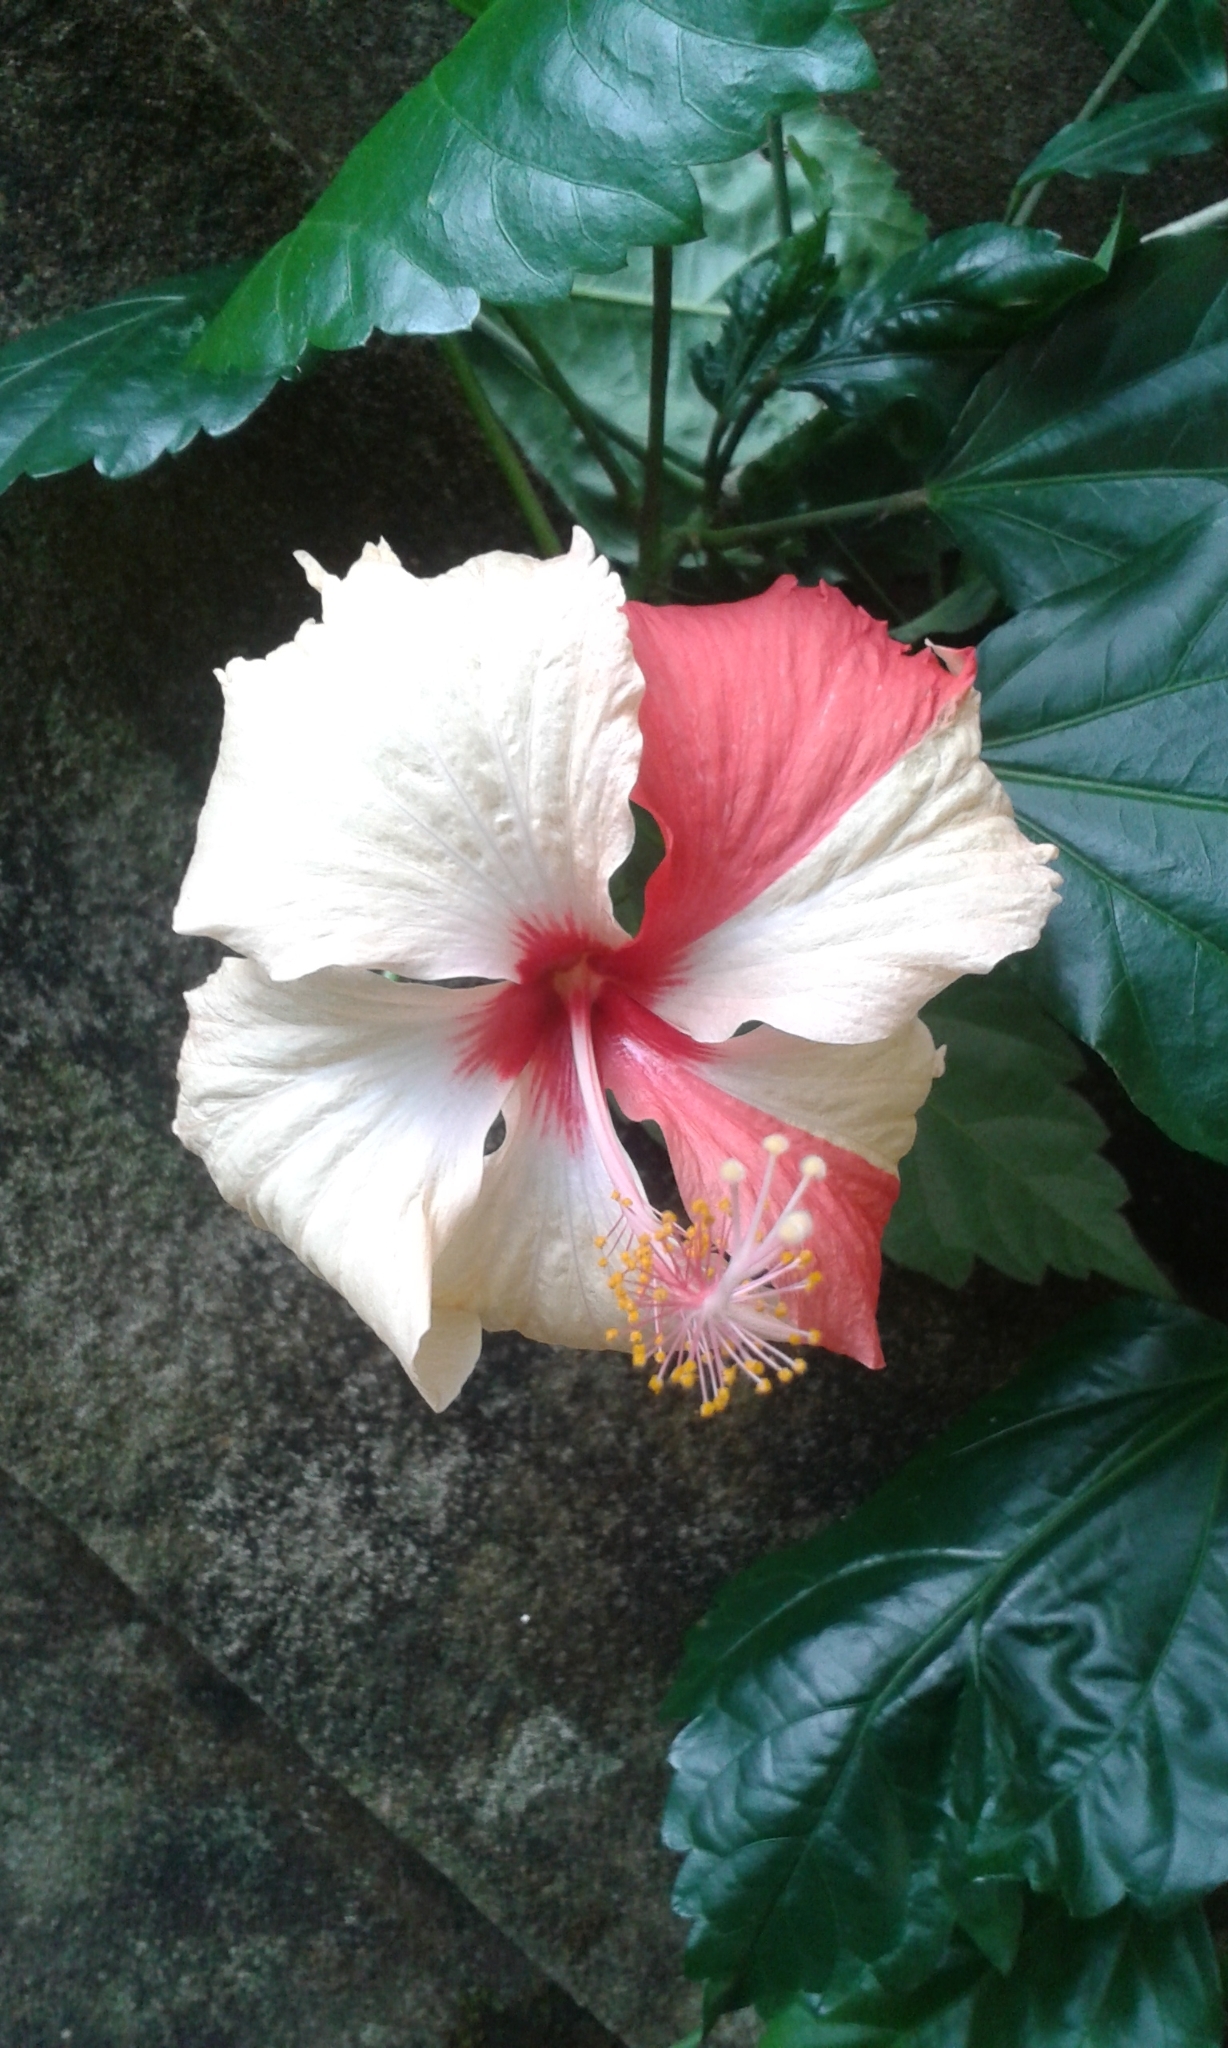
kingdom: Plantae
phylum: Tracheophyta
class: Magnoliopsida
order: Malvales
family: Malvaceae
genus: Hibiscus
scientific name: Hibiscus archeri
